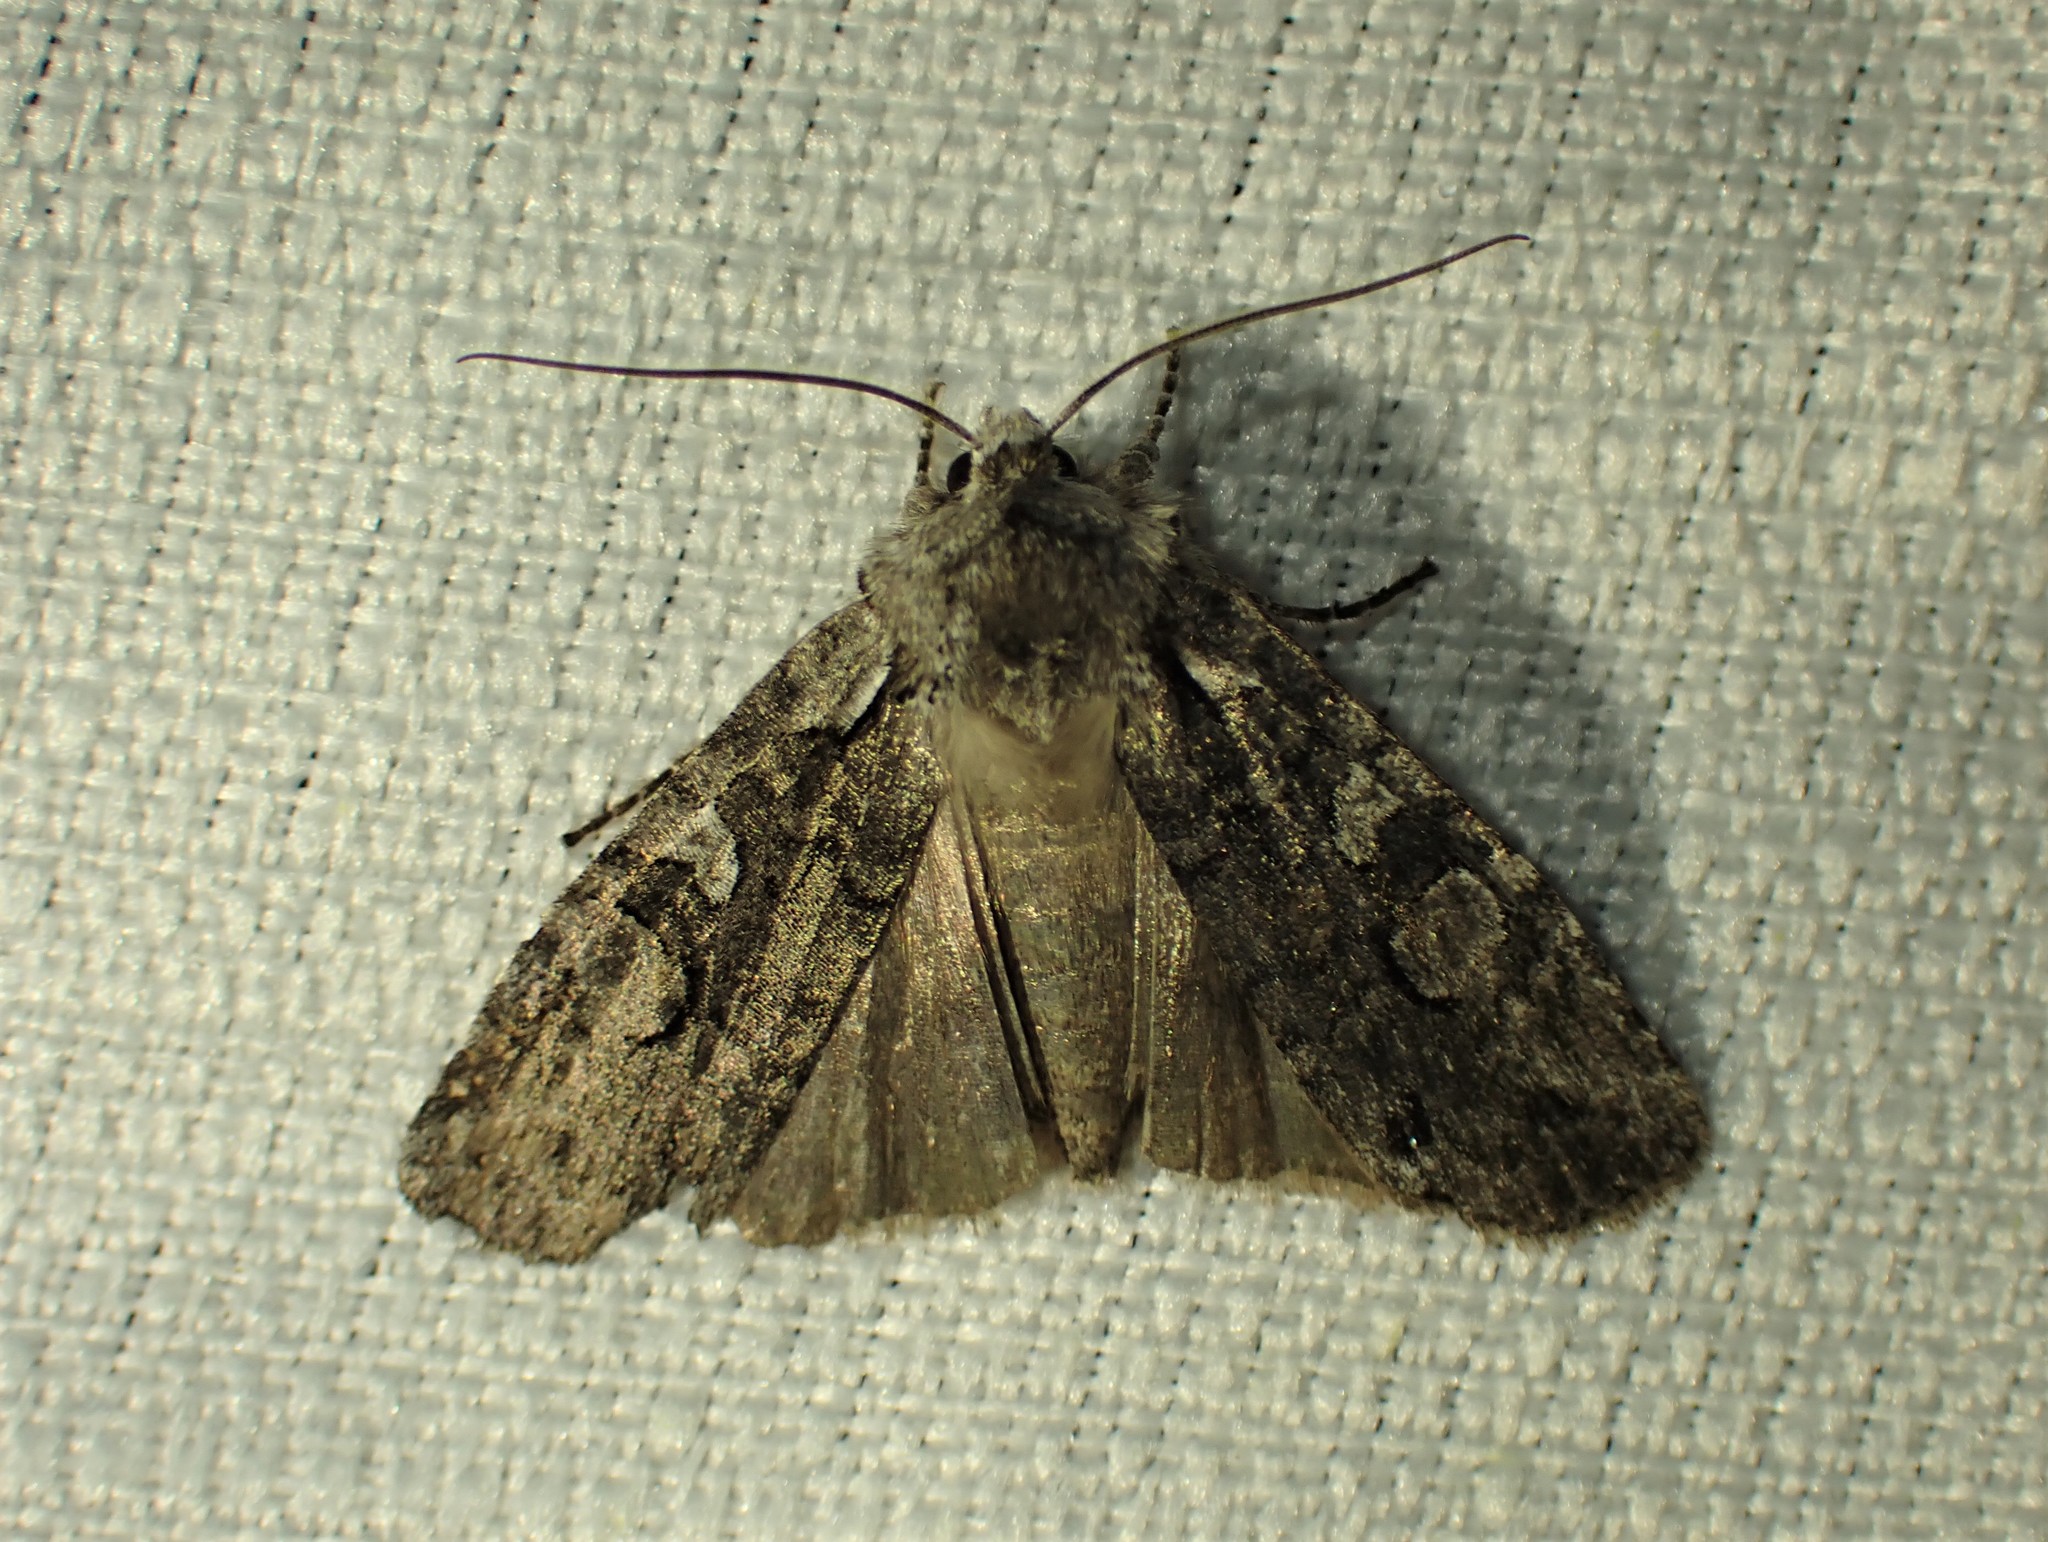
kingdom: Animalia
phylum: Arthropoda
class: Insecta
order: Lepidoptera
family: Noctuidae
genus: Lithophane
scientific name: Lithophane baileyi
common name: Bailey's pinion moth
